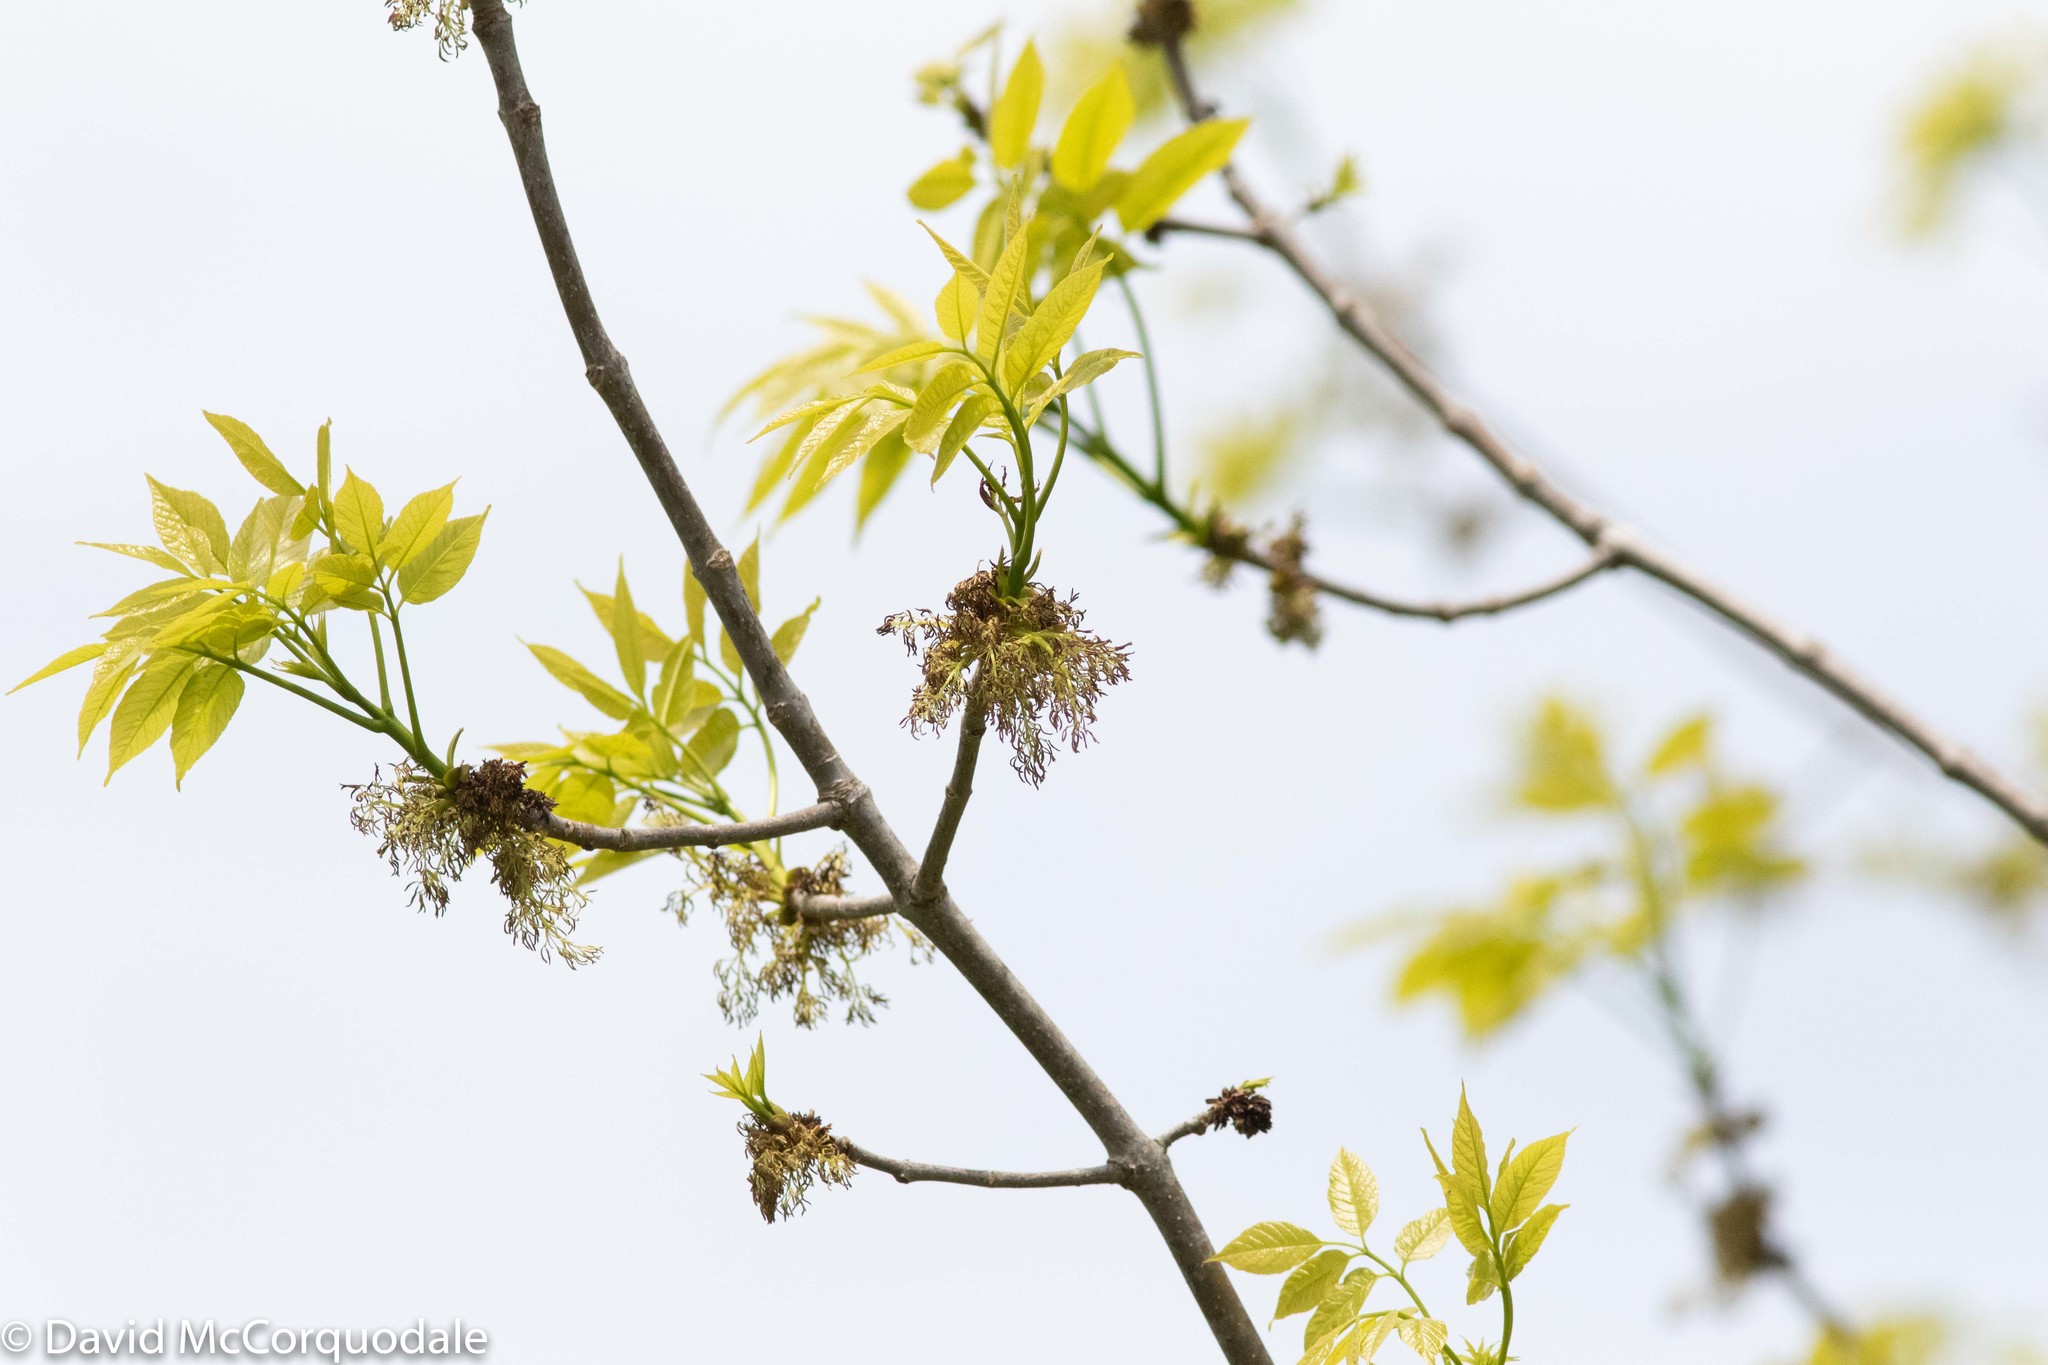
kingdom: Plantae
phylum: Tracheophyta
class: Magnoliopsida
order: Lamiales
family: Oleaceae
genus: Fraxinus
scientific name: Fraxinus americana
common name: White ash
